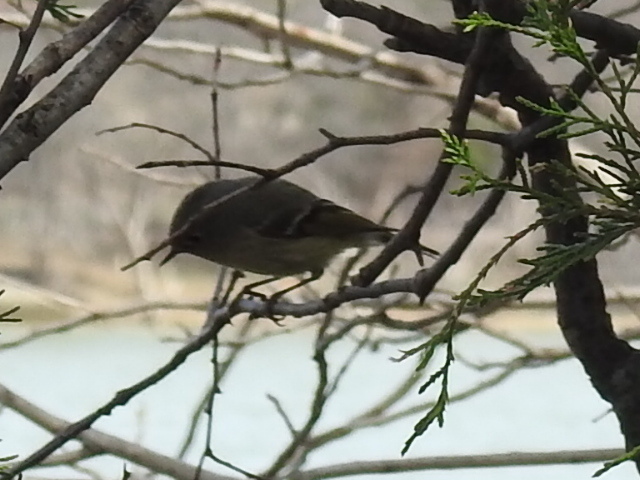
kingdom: Animalia
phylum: Chordata
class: Aves
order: Passeriformes
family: Regulidae
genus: Regulus
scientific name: Regulus calendula
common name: Ruby-crowned kinglet
